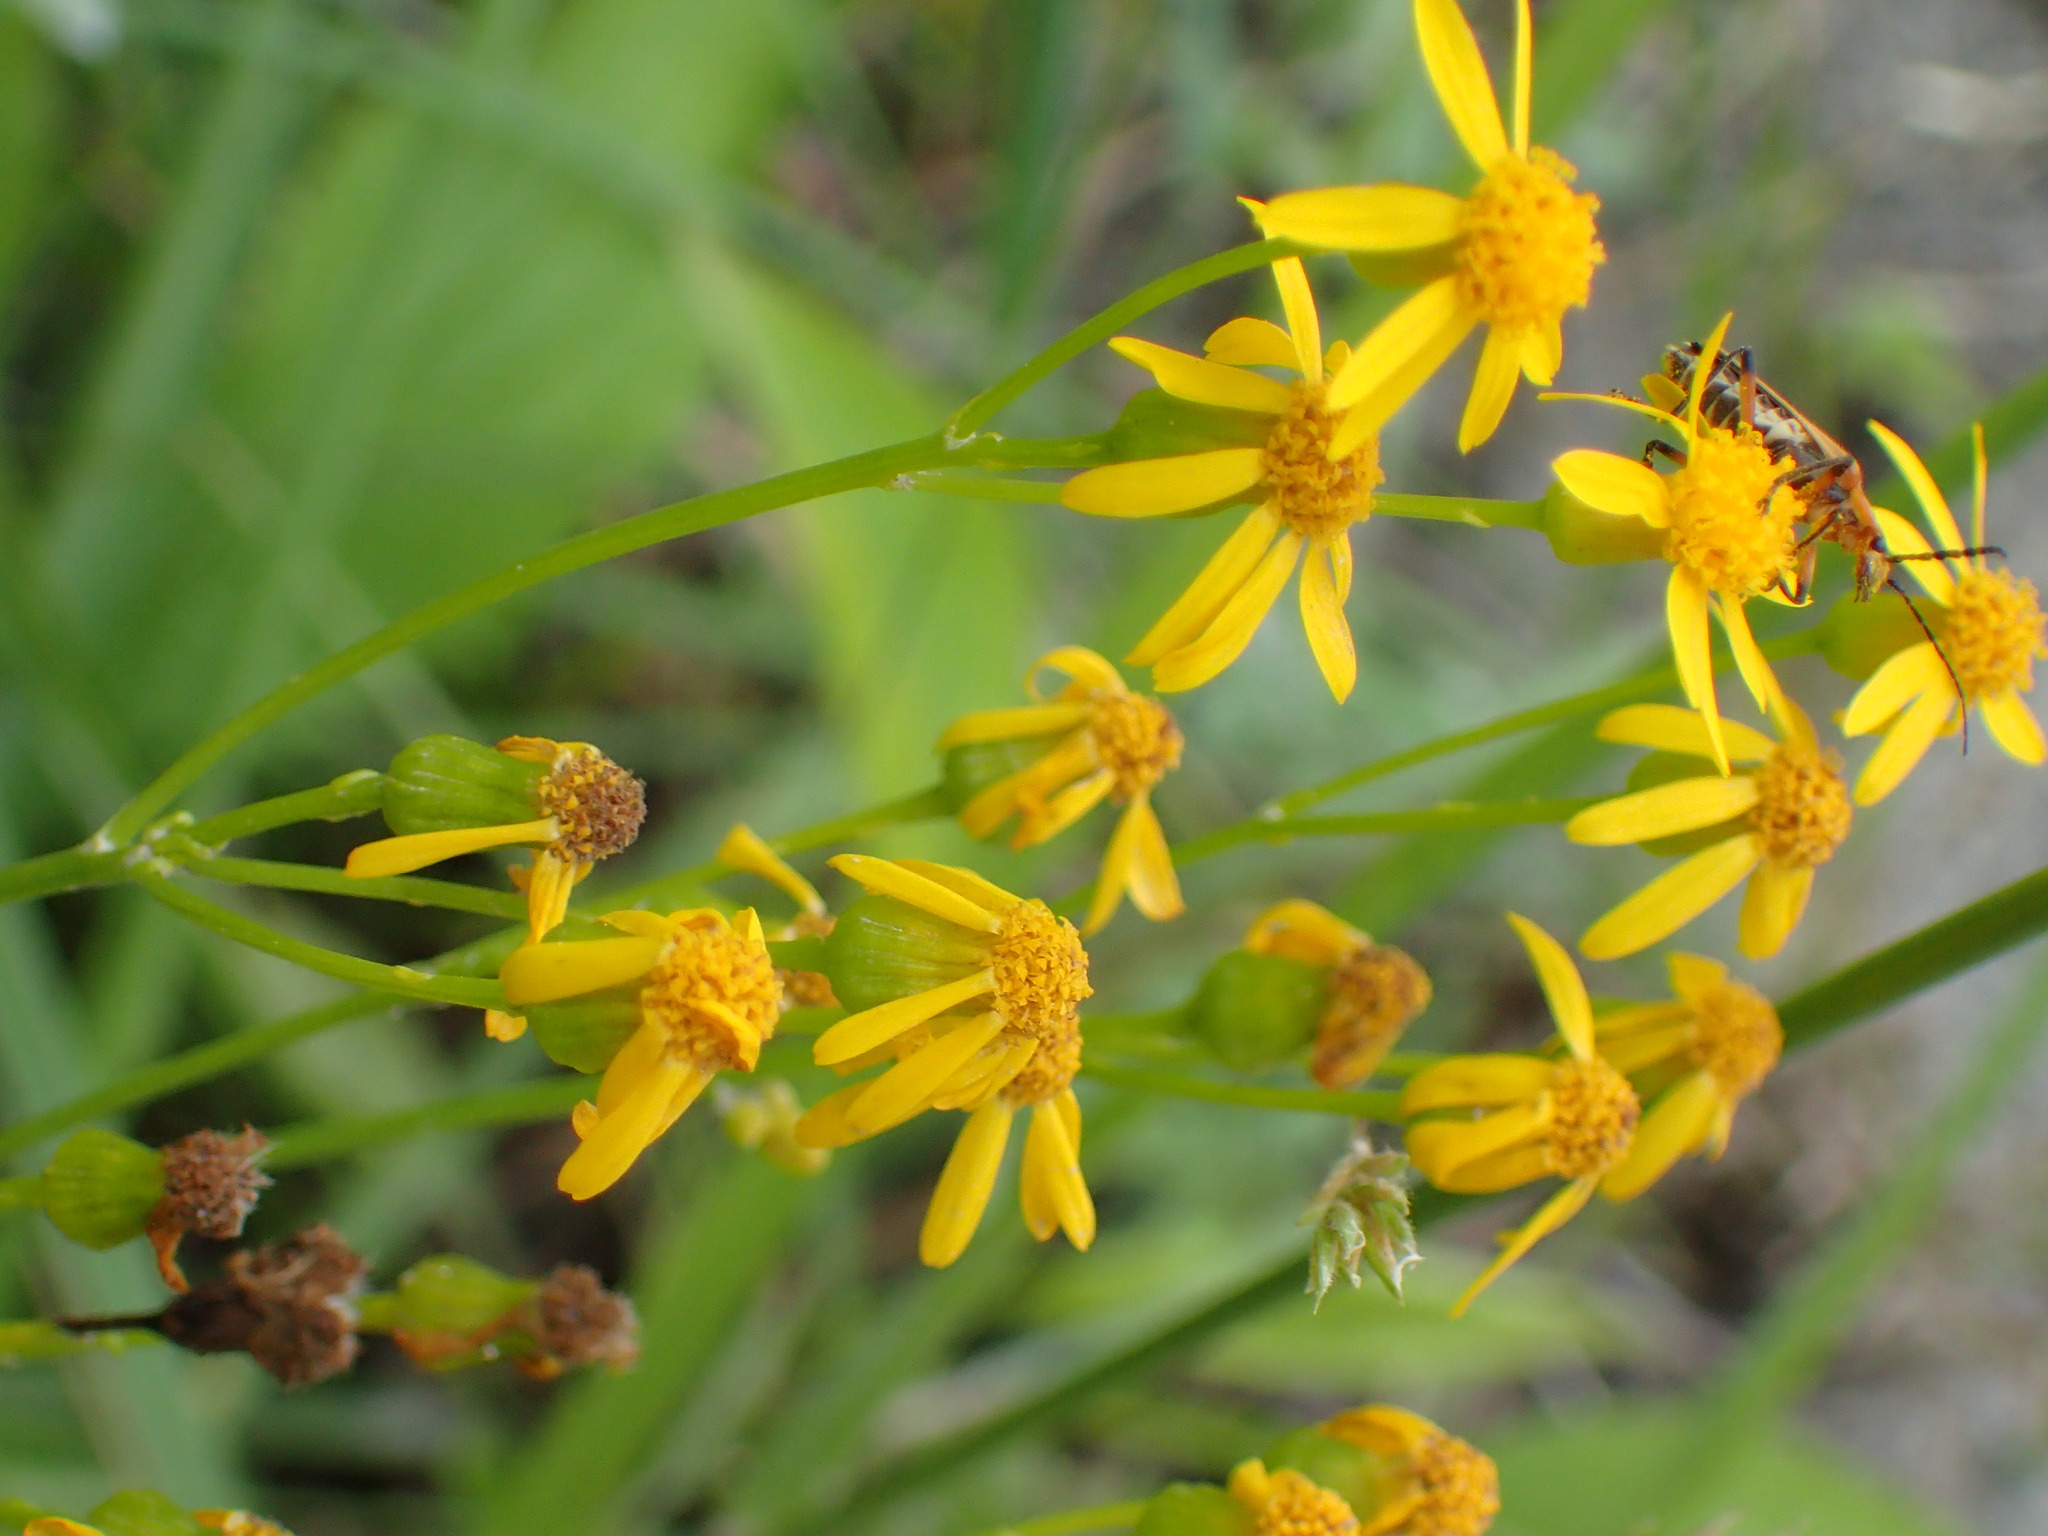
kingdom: Plantae
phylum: Tracheophyta
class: Magnoliopsida
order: Asterales
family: Asteraceae
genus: Packera
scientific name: Packera anonyma
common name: Small ragwort
